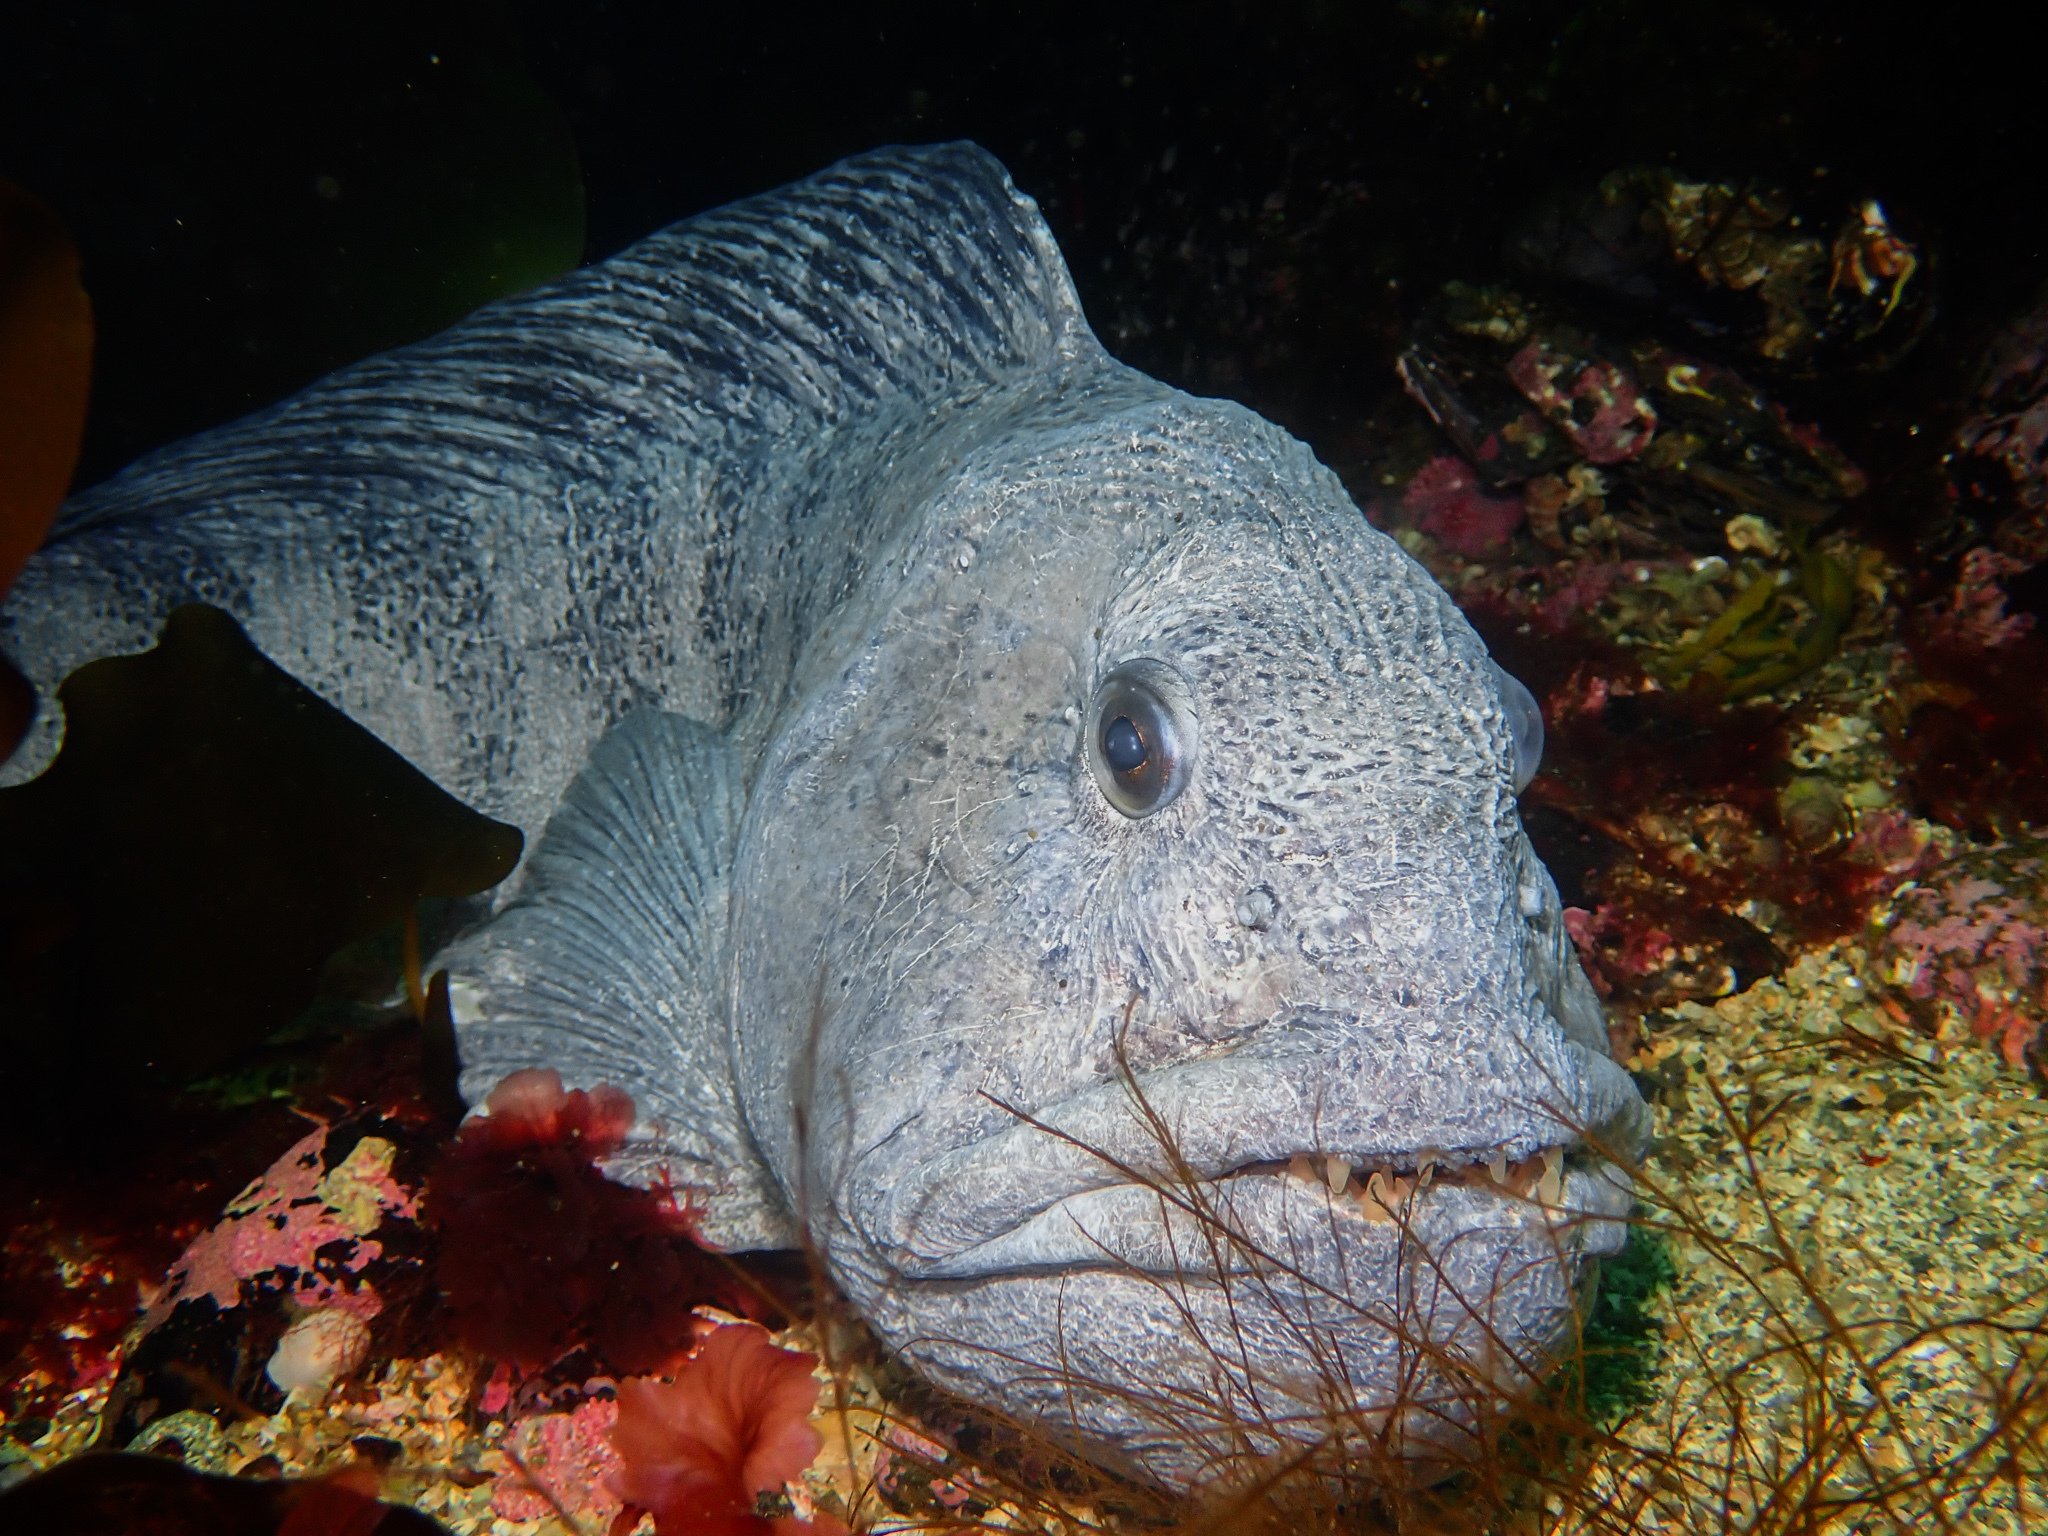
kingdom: Animalia
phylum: Chordata
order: Perciformes
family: Anarhichadidae
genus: Anarhichas
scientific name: Anarhichas lupus
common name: Wolf-fish
